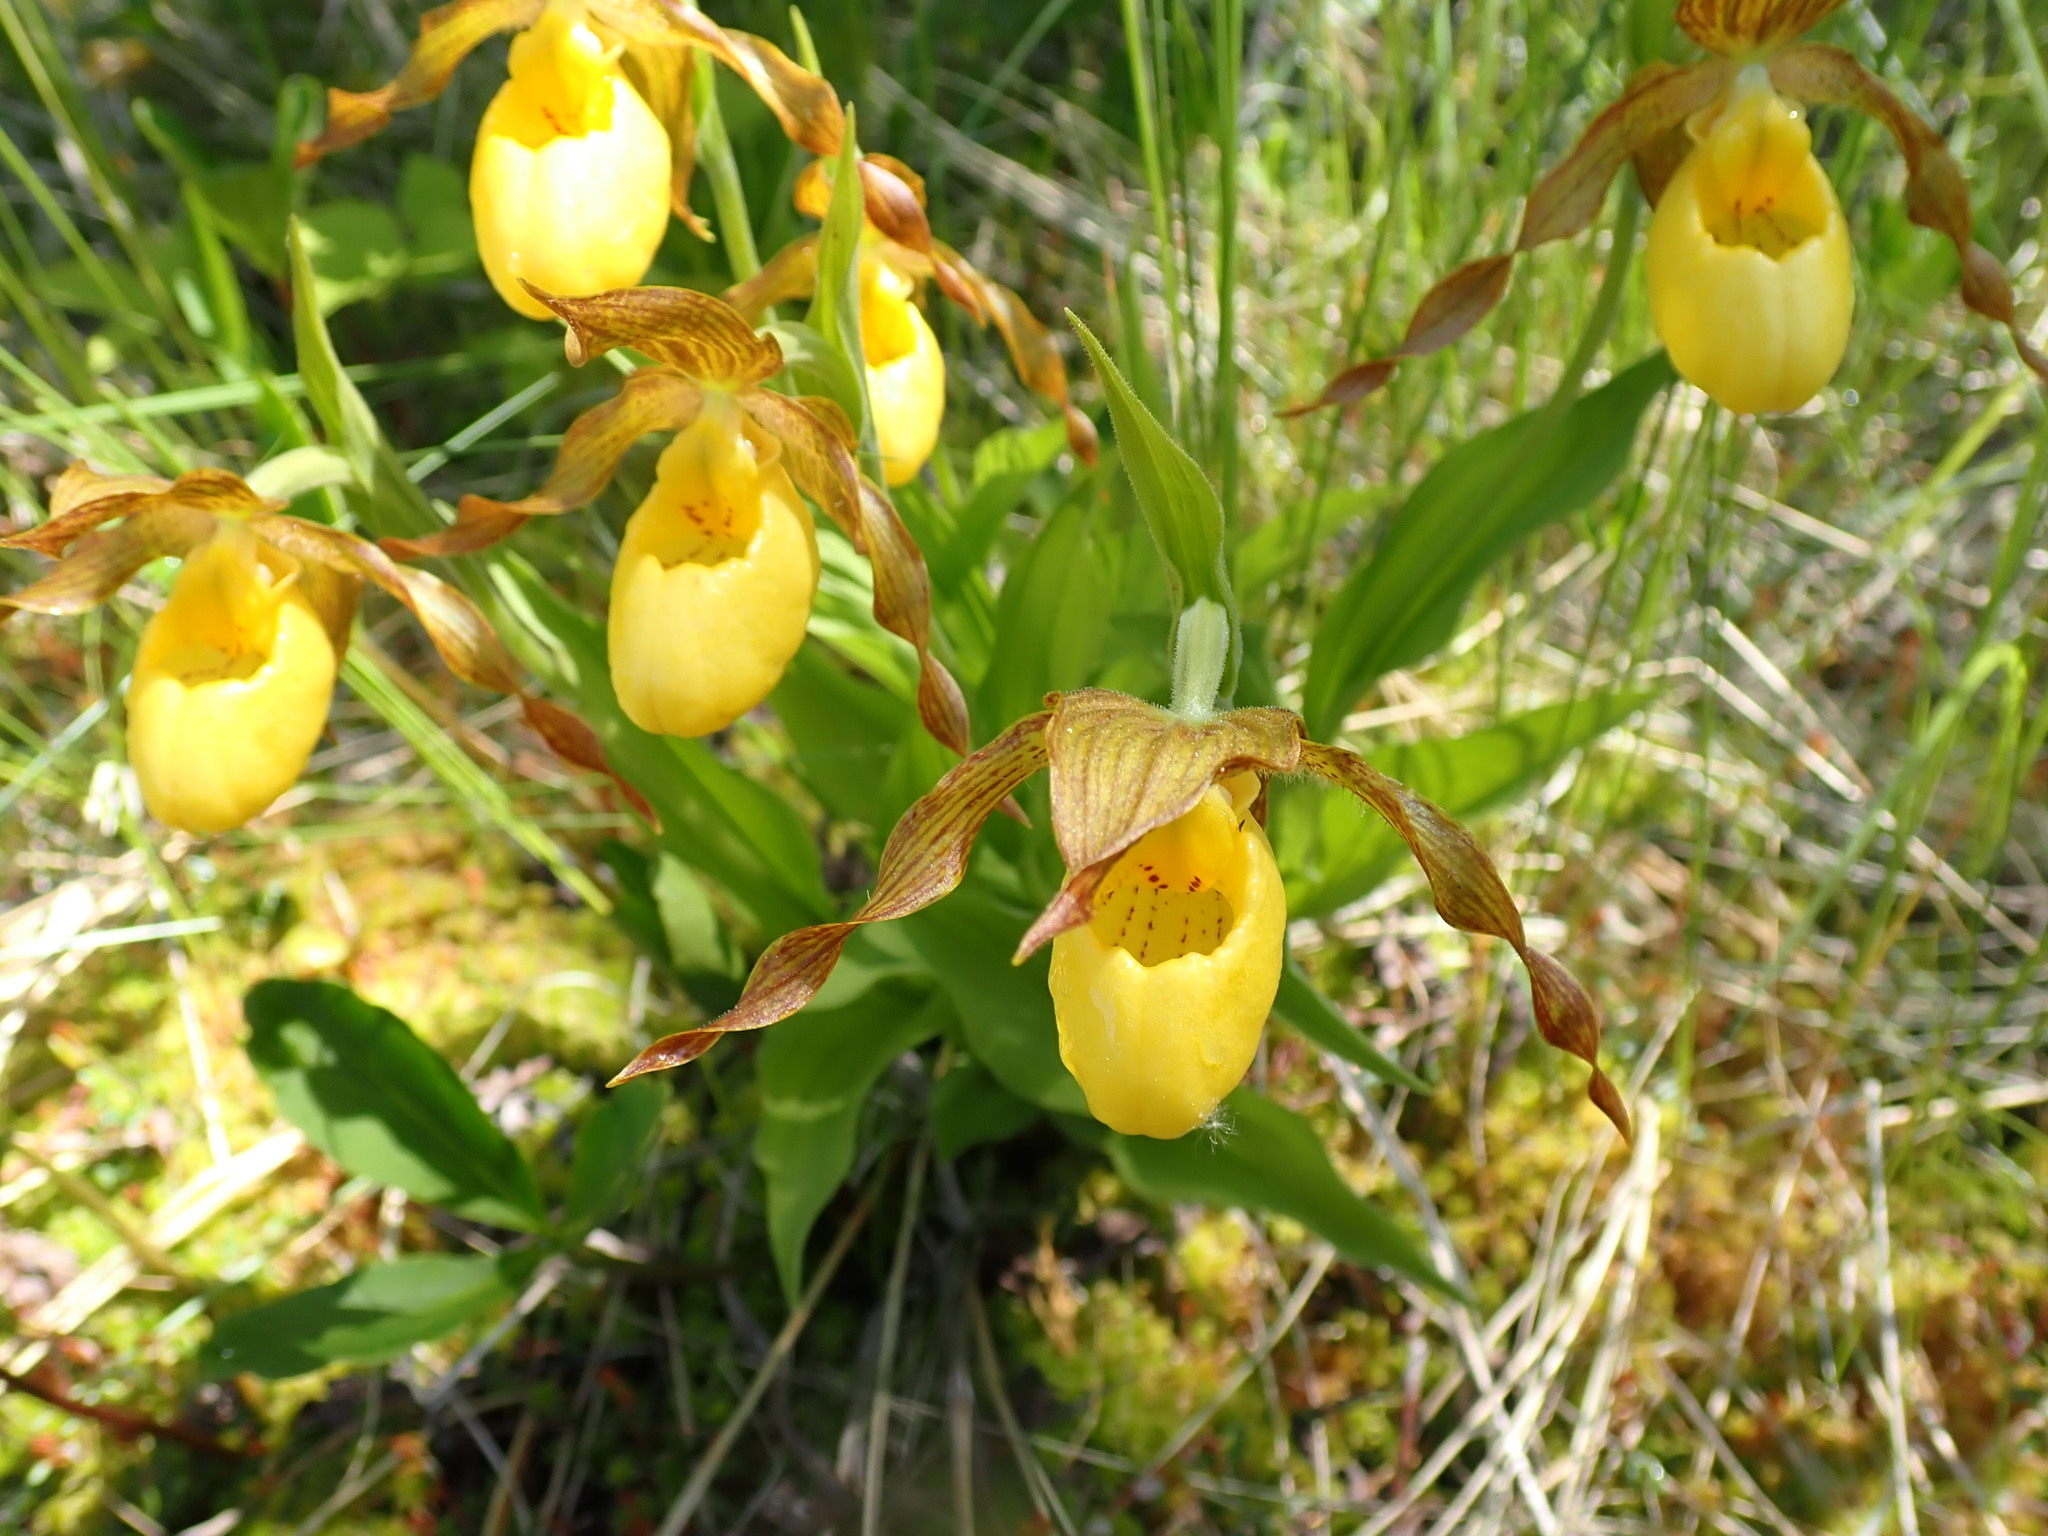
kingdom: Plantae
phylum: Tracheophyta
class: Liliopsida
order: Asparagales
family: Orchidaceae
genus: Cypripedium
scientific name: Cypripedium parviflorum
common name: American yellow lady's-slipper
